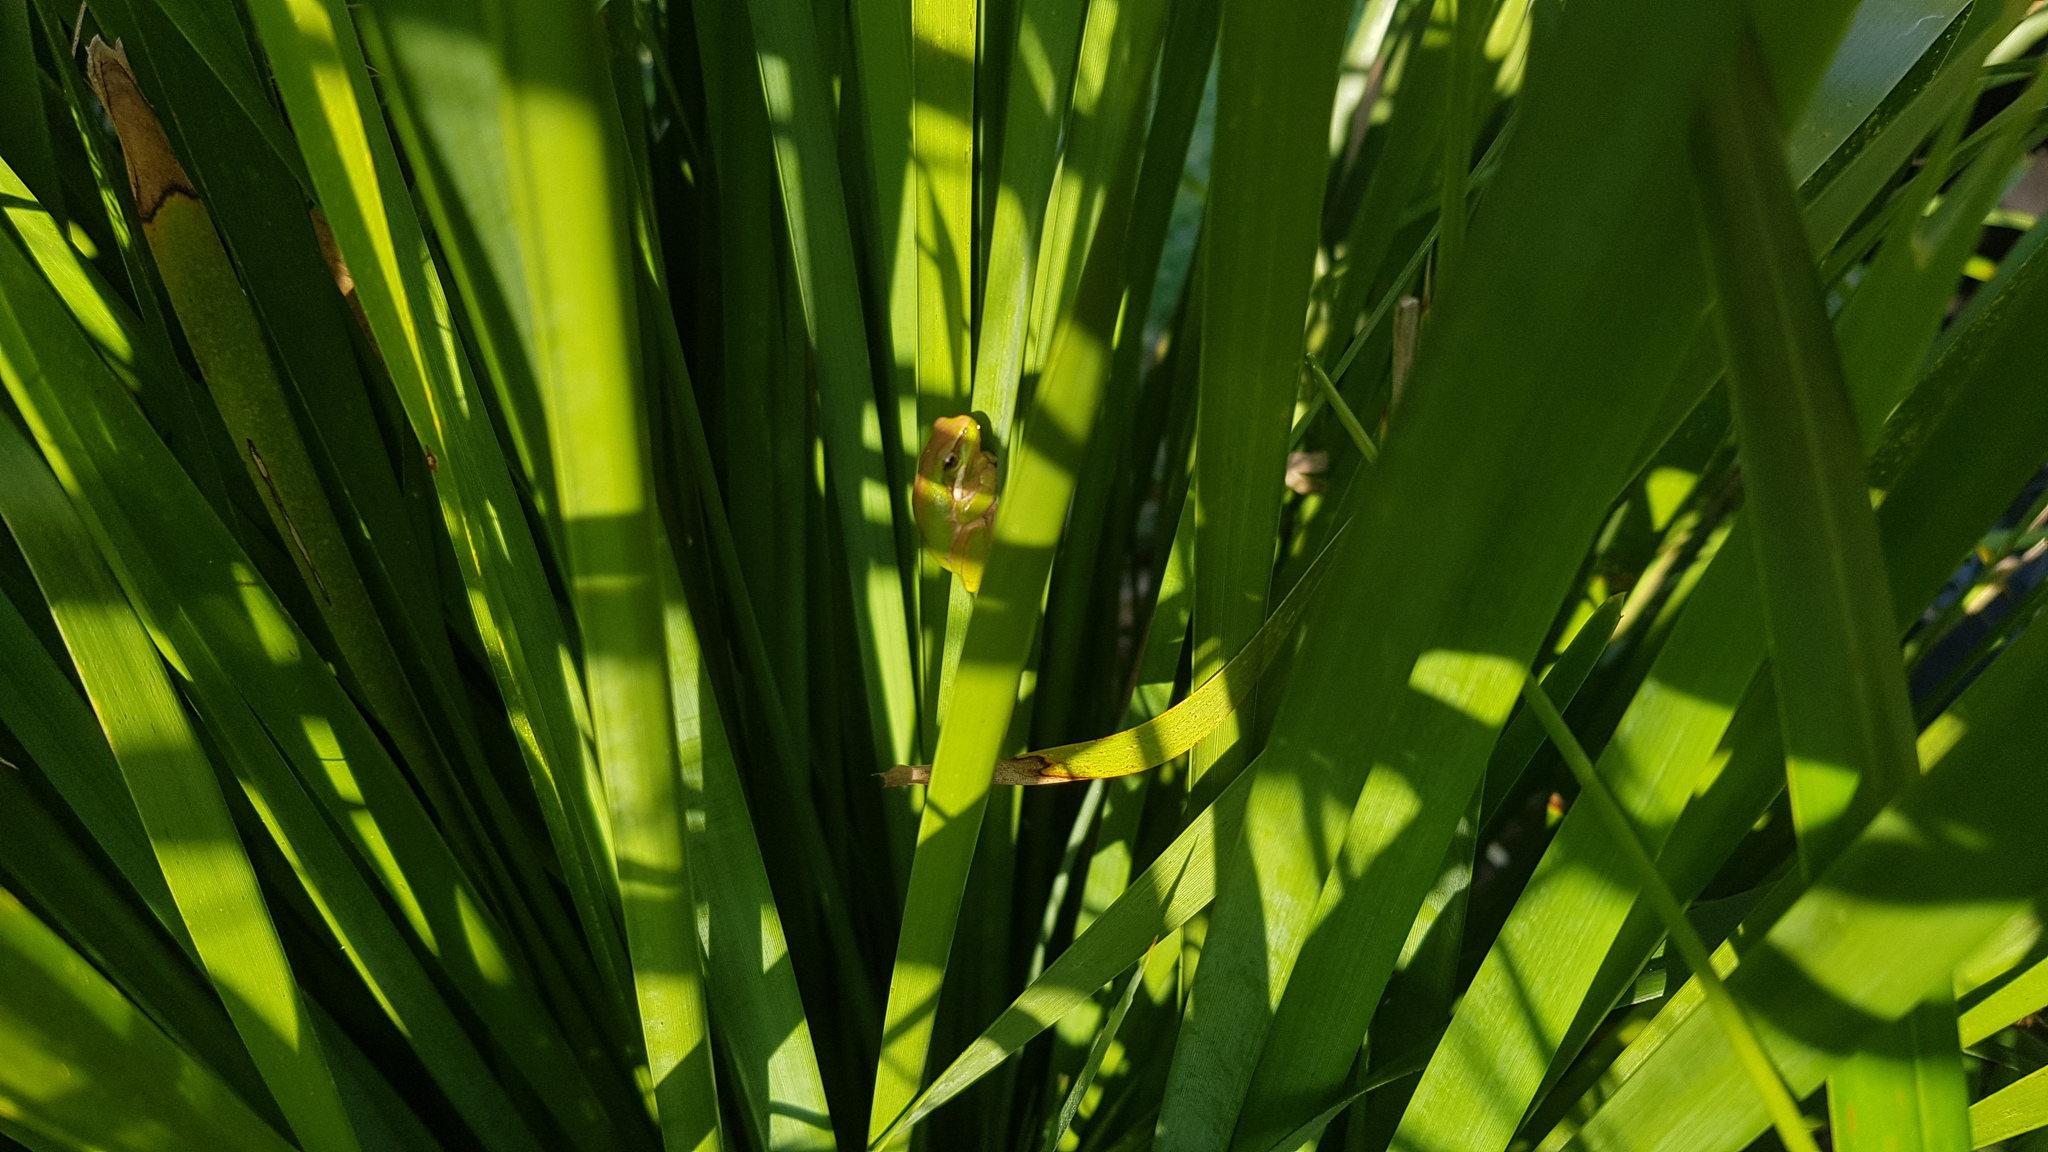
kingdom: Animalia
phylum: Chordata
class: Amphibia
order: Anura
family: Pelodryadidae
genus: Litoria
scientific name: Litoria fallax
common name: Eastern dwarf treefrog
